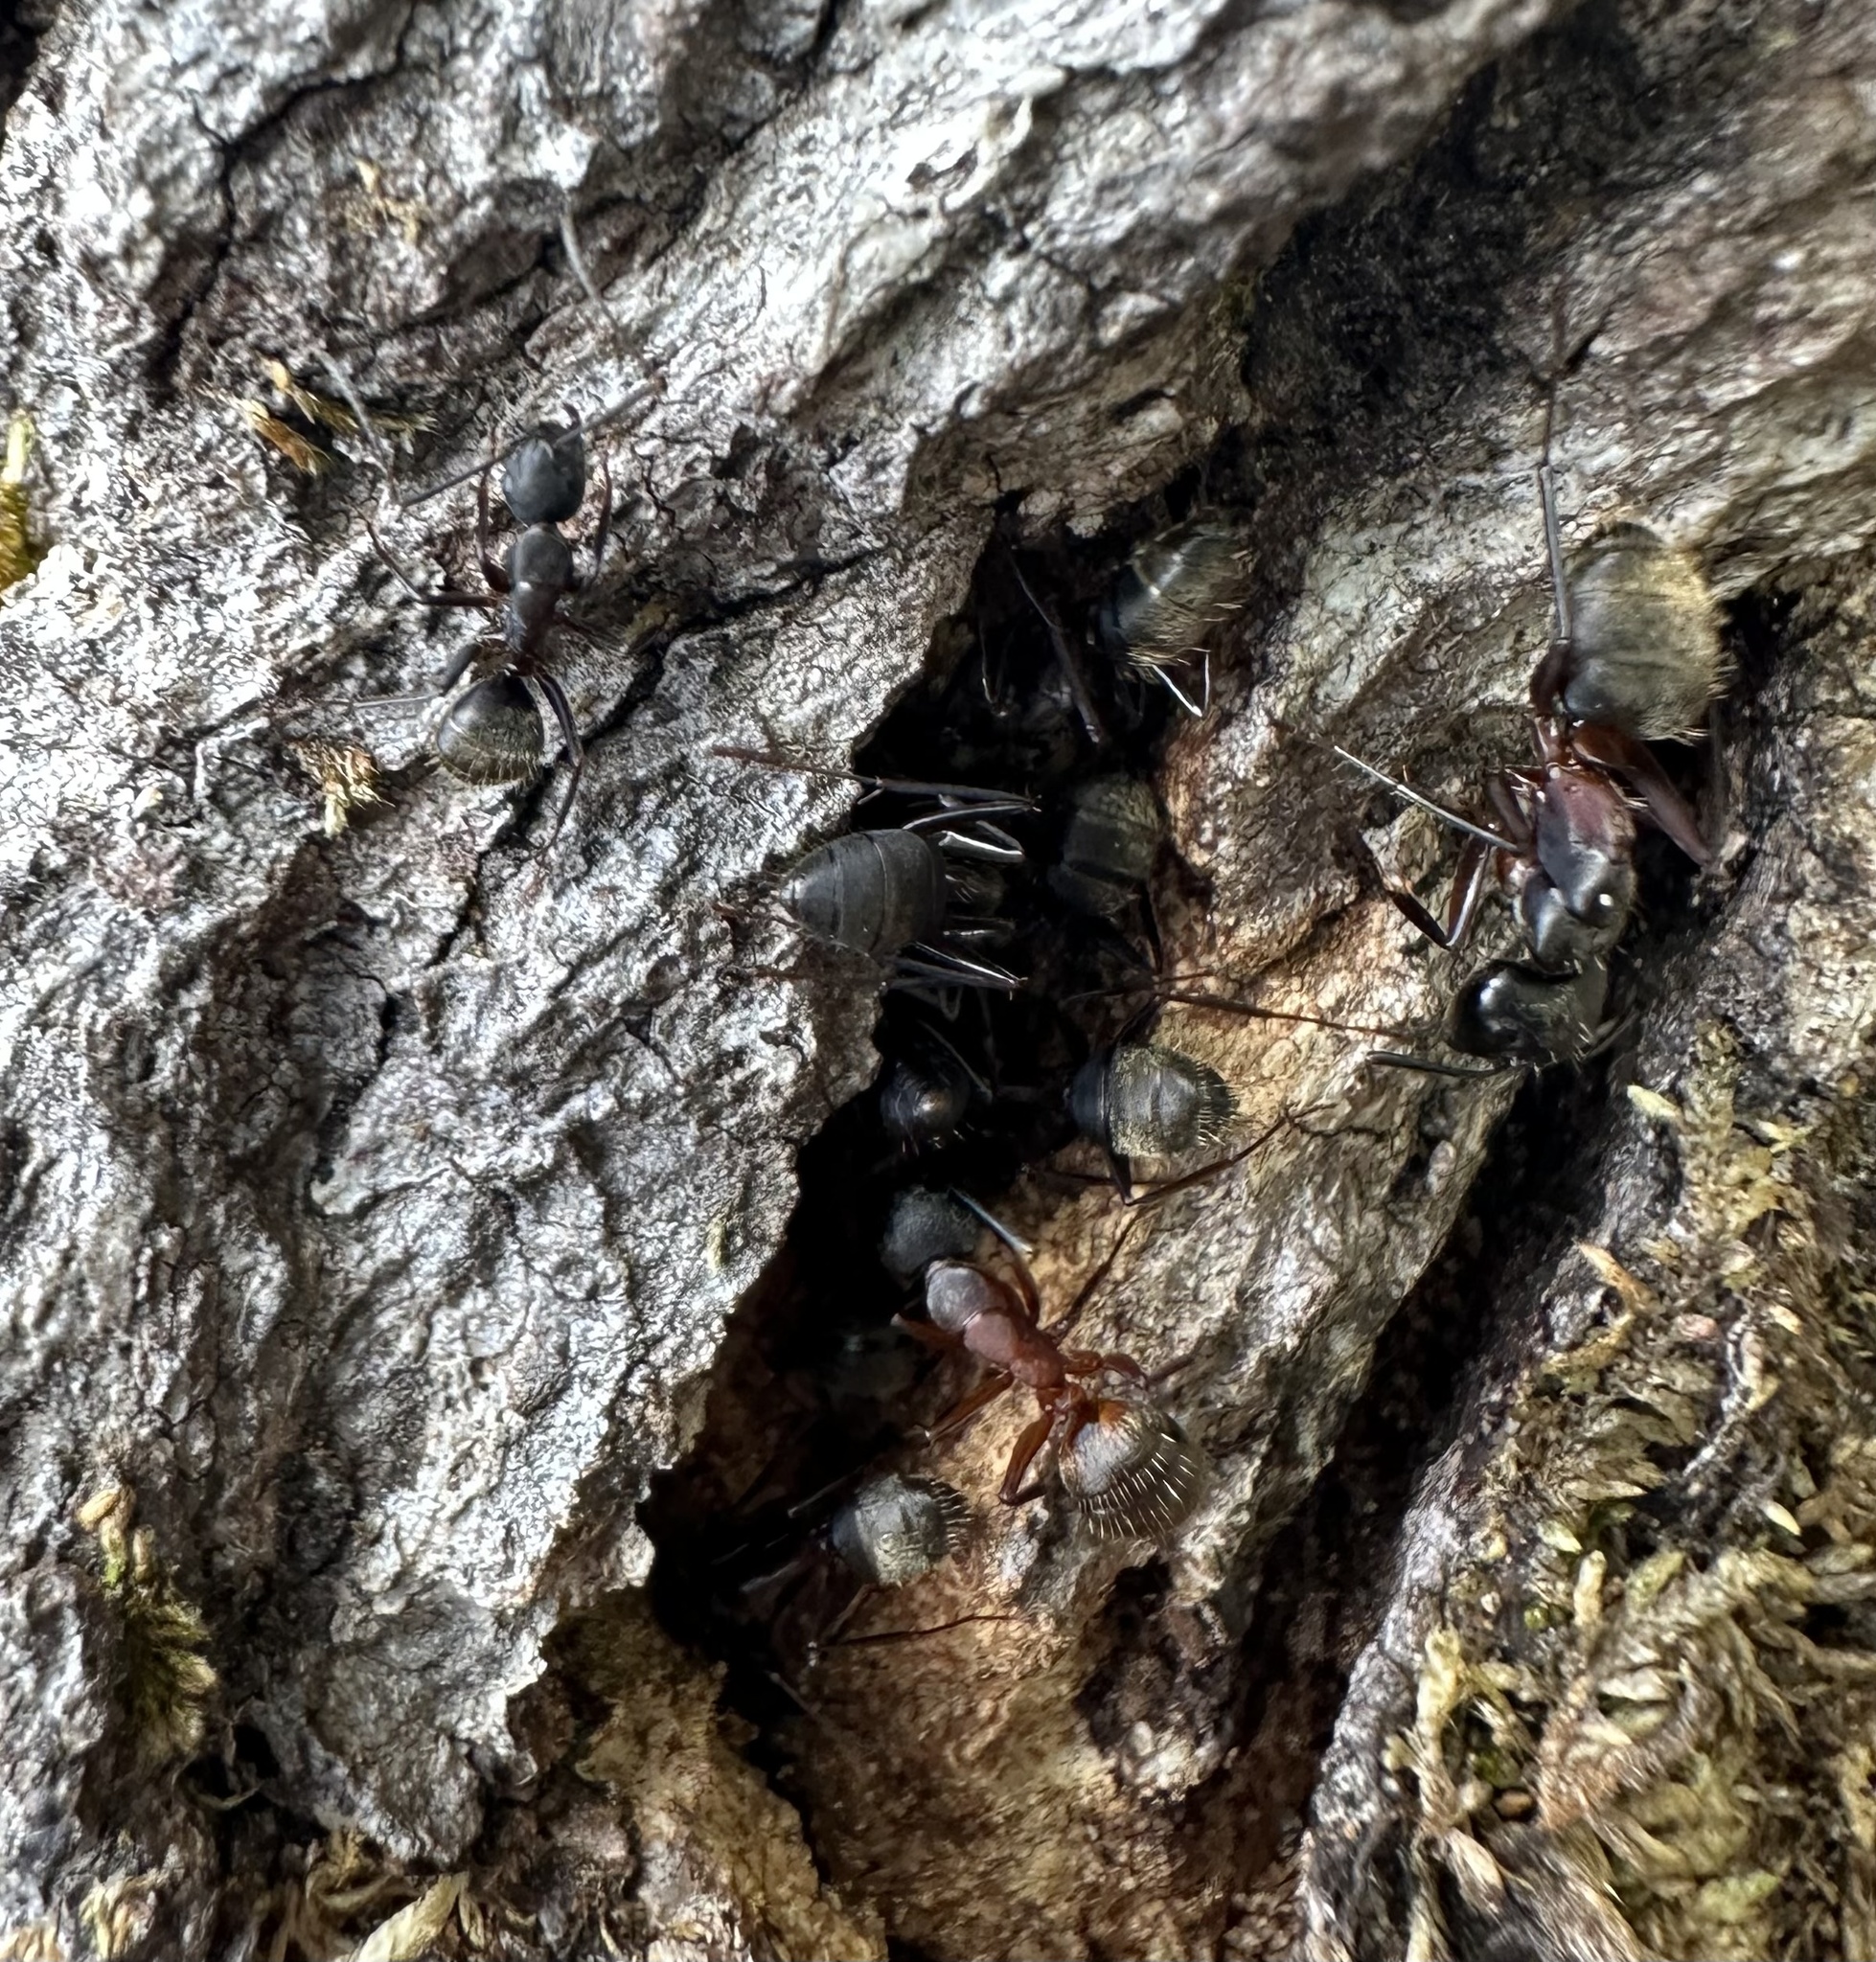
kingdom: Animalia
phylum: Arthropoda
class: Insecta
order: Hymenoptera
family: Formicidae
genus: Camponotus
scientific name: Camponotus chromaiodes
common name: Red carpenter ant
